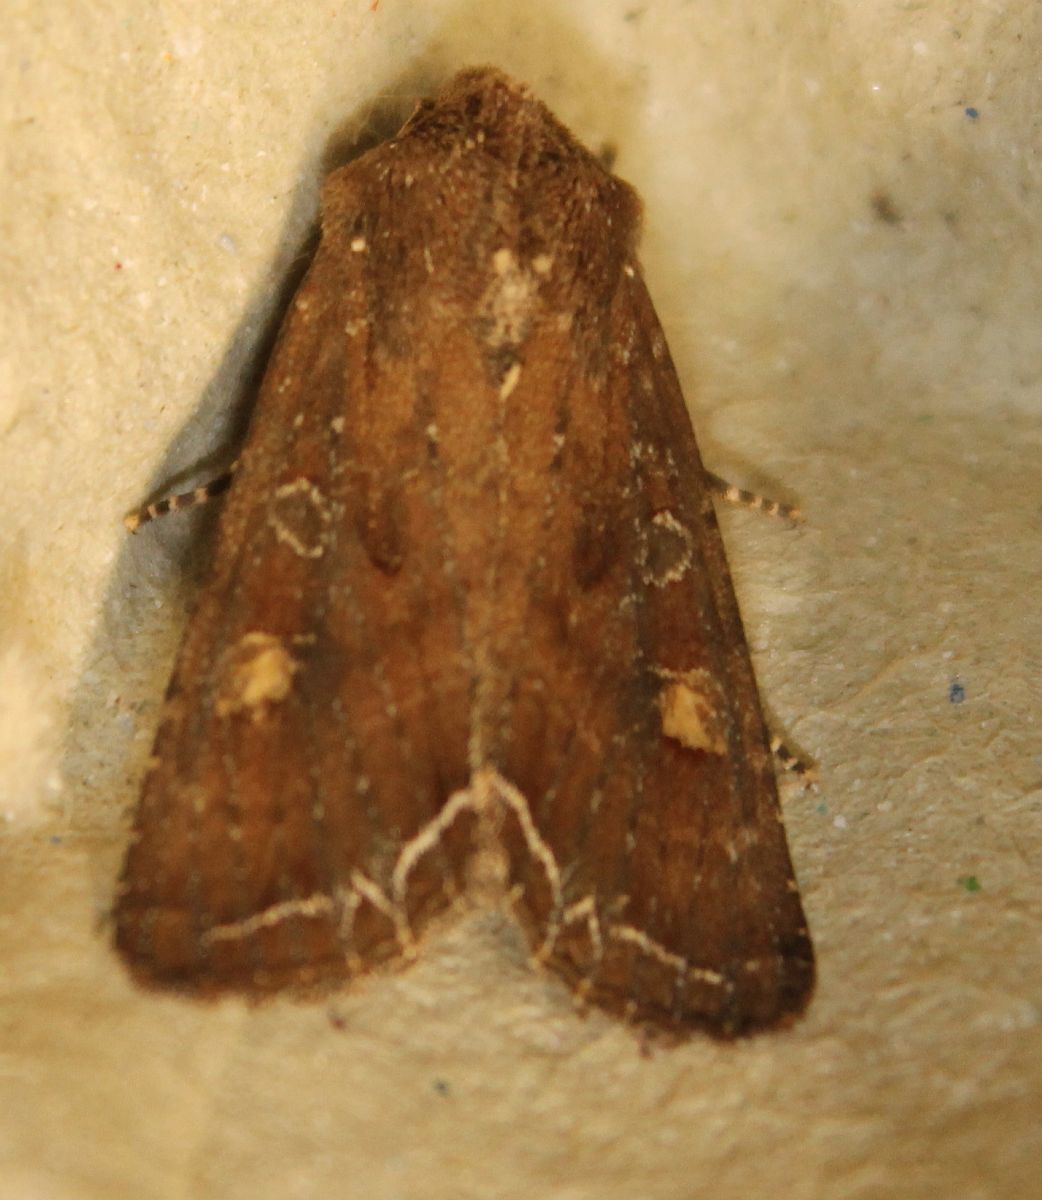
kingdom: Animalia
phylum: Arthropoda
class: Insecta
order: Lepidoptera
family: Noctuidae
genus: Lacanobia
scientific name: Lacanobia oleracea
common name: Bright-line brown-eye
